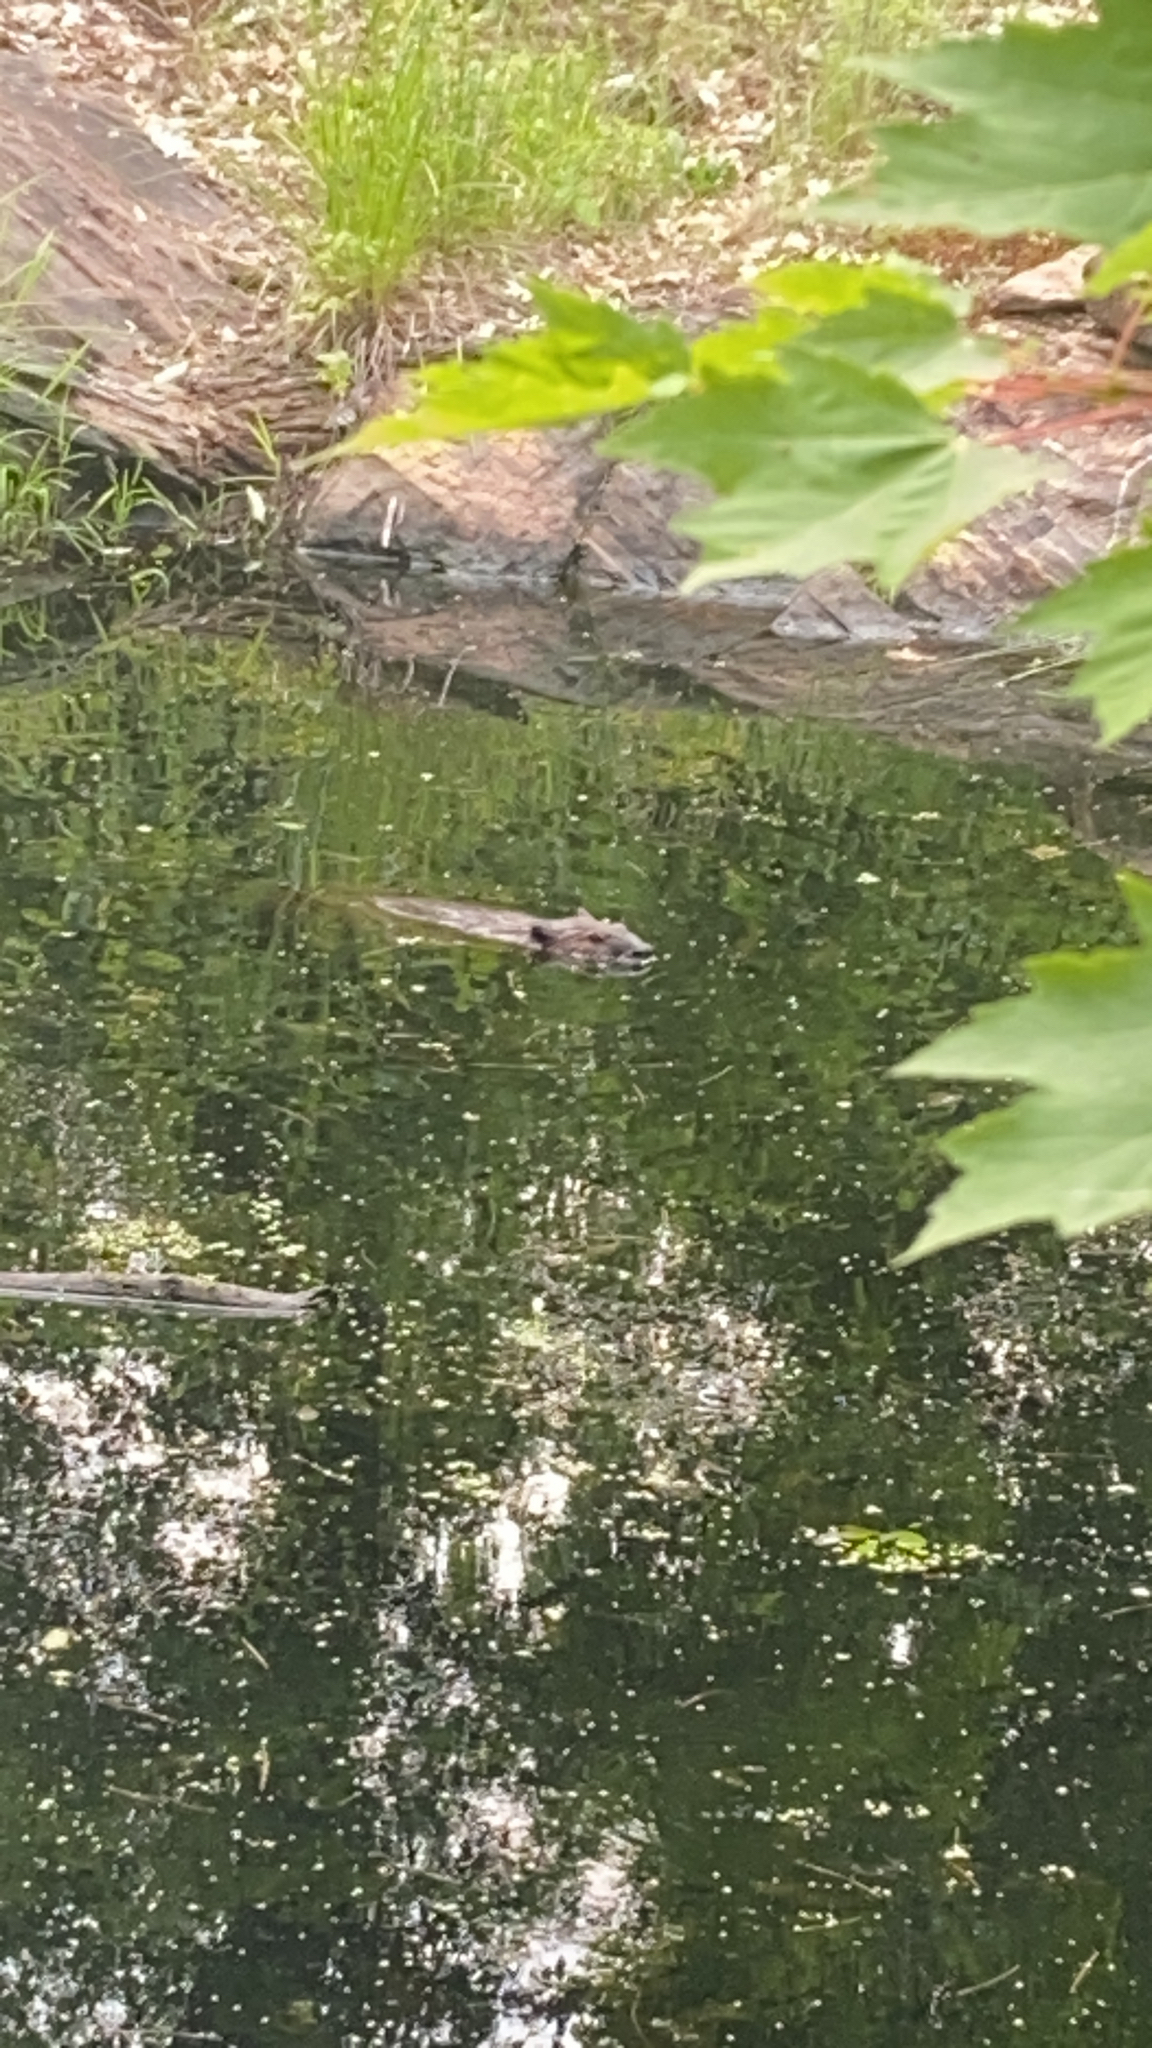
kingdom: Animalia
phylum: Chordata
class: Mammalia
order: Rodentia
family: Castoridae
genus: Castor
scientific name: Castor canadensis
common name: American beaver
